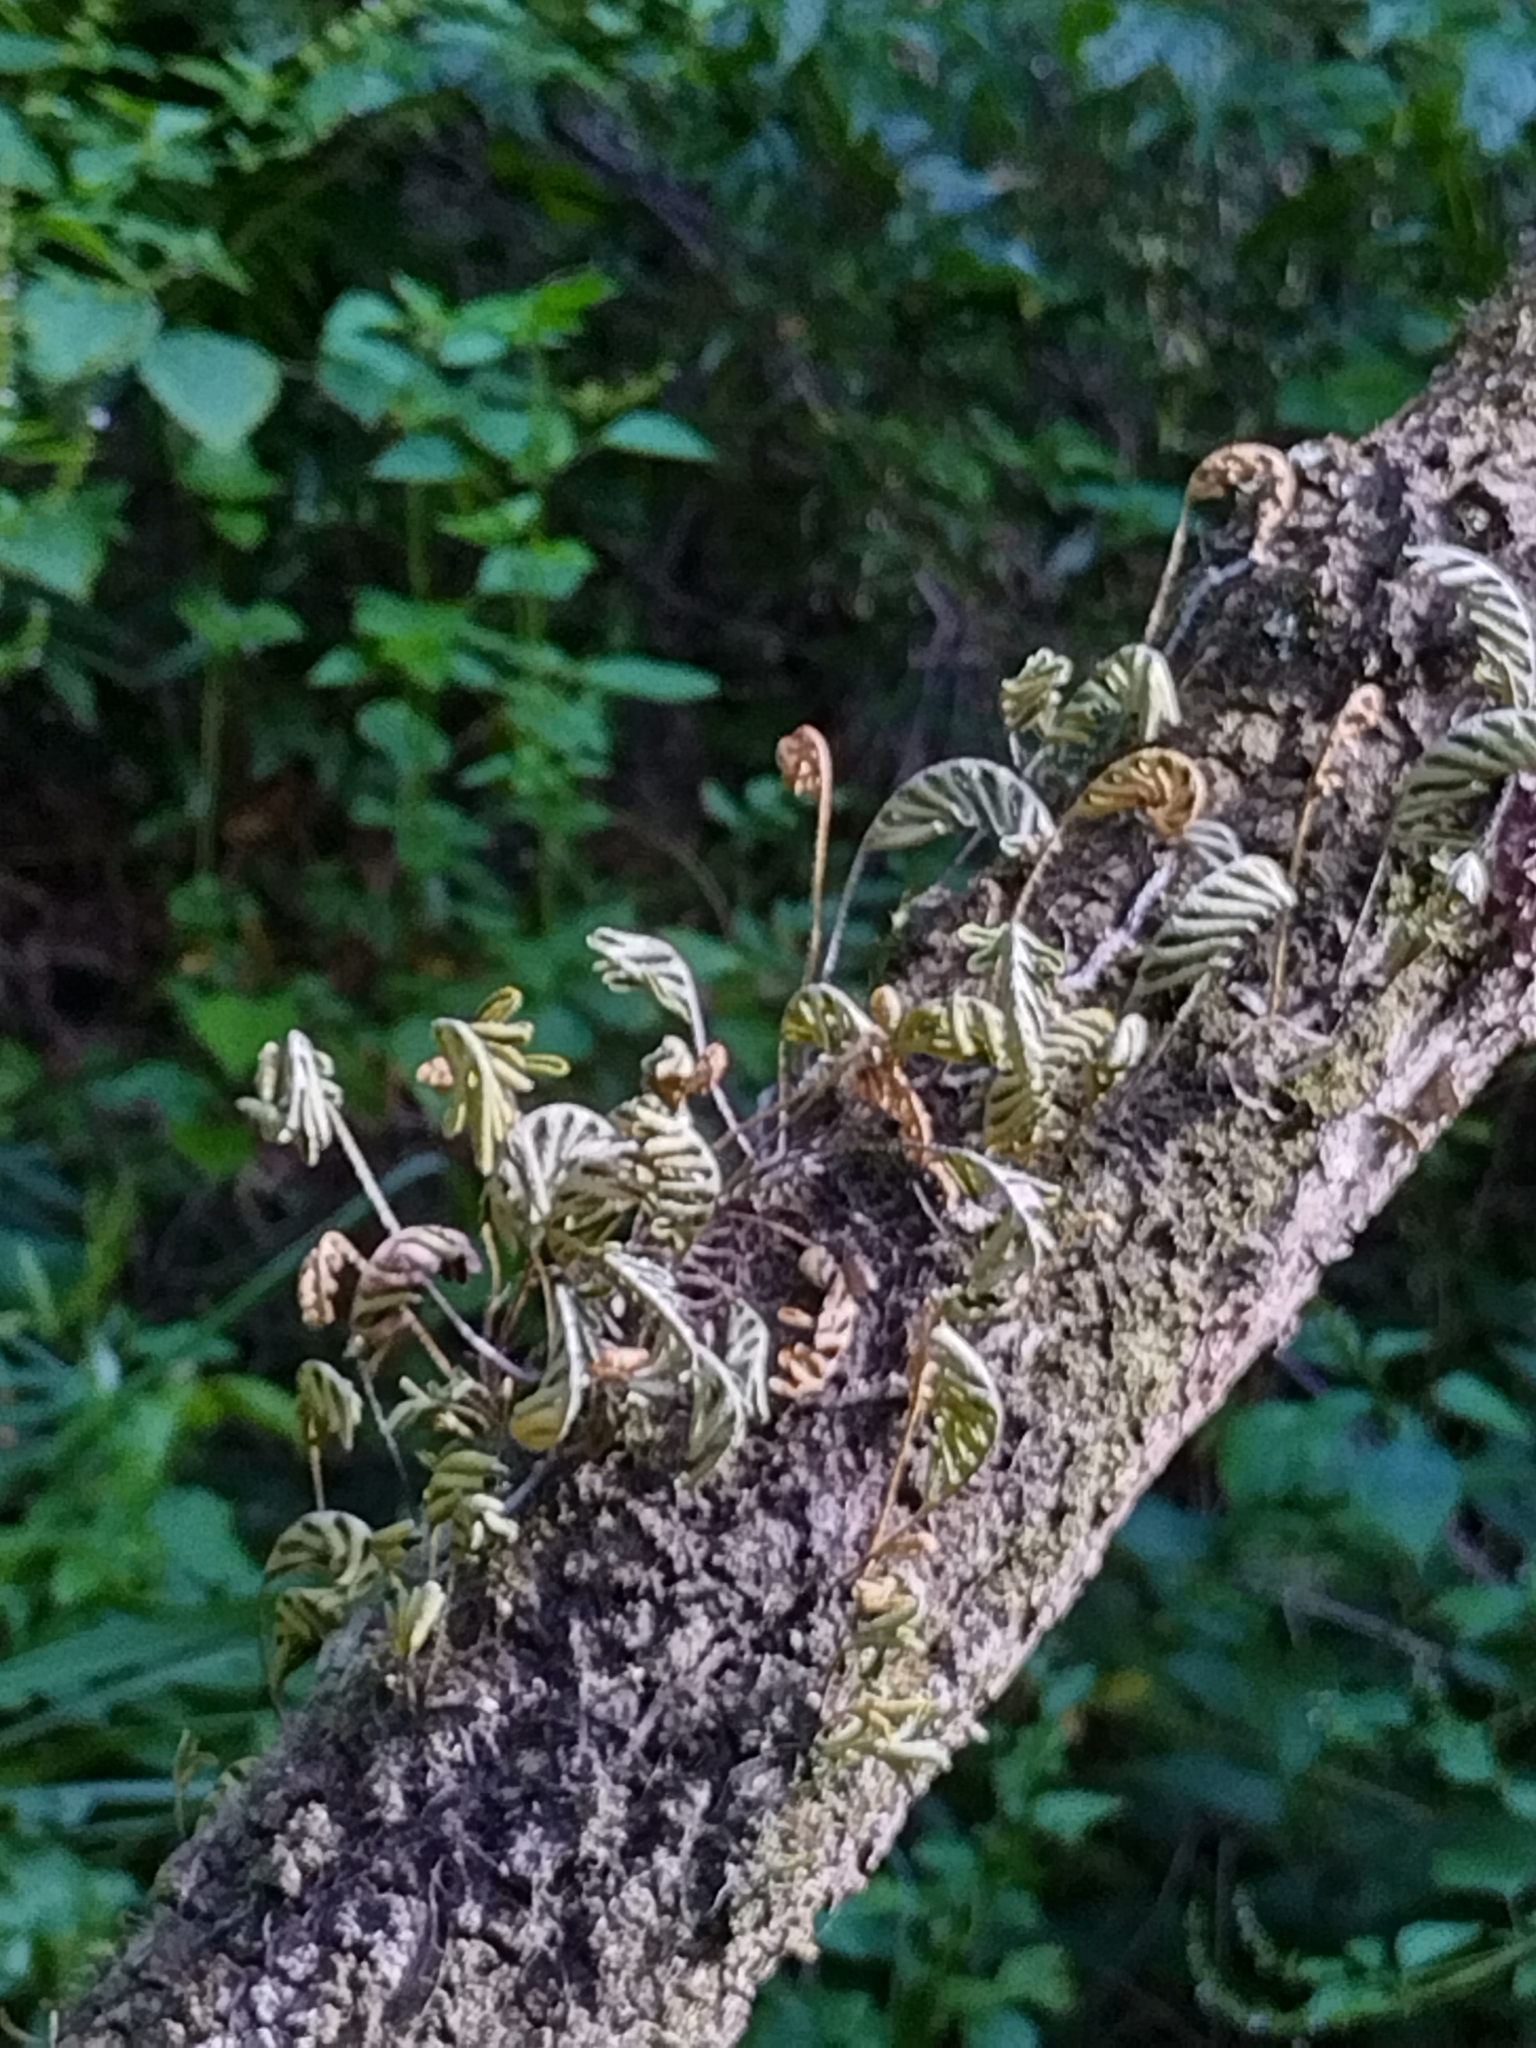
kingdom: Plantae
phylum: Tracheophyta
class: Polypodiopsida
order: Polypodiales
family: Polypodiaceae
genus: Pleopeltis
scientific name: Pleopeltis michauxiana
